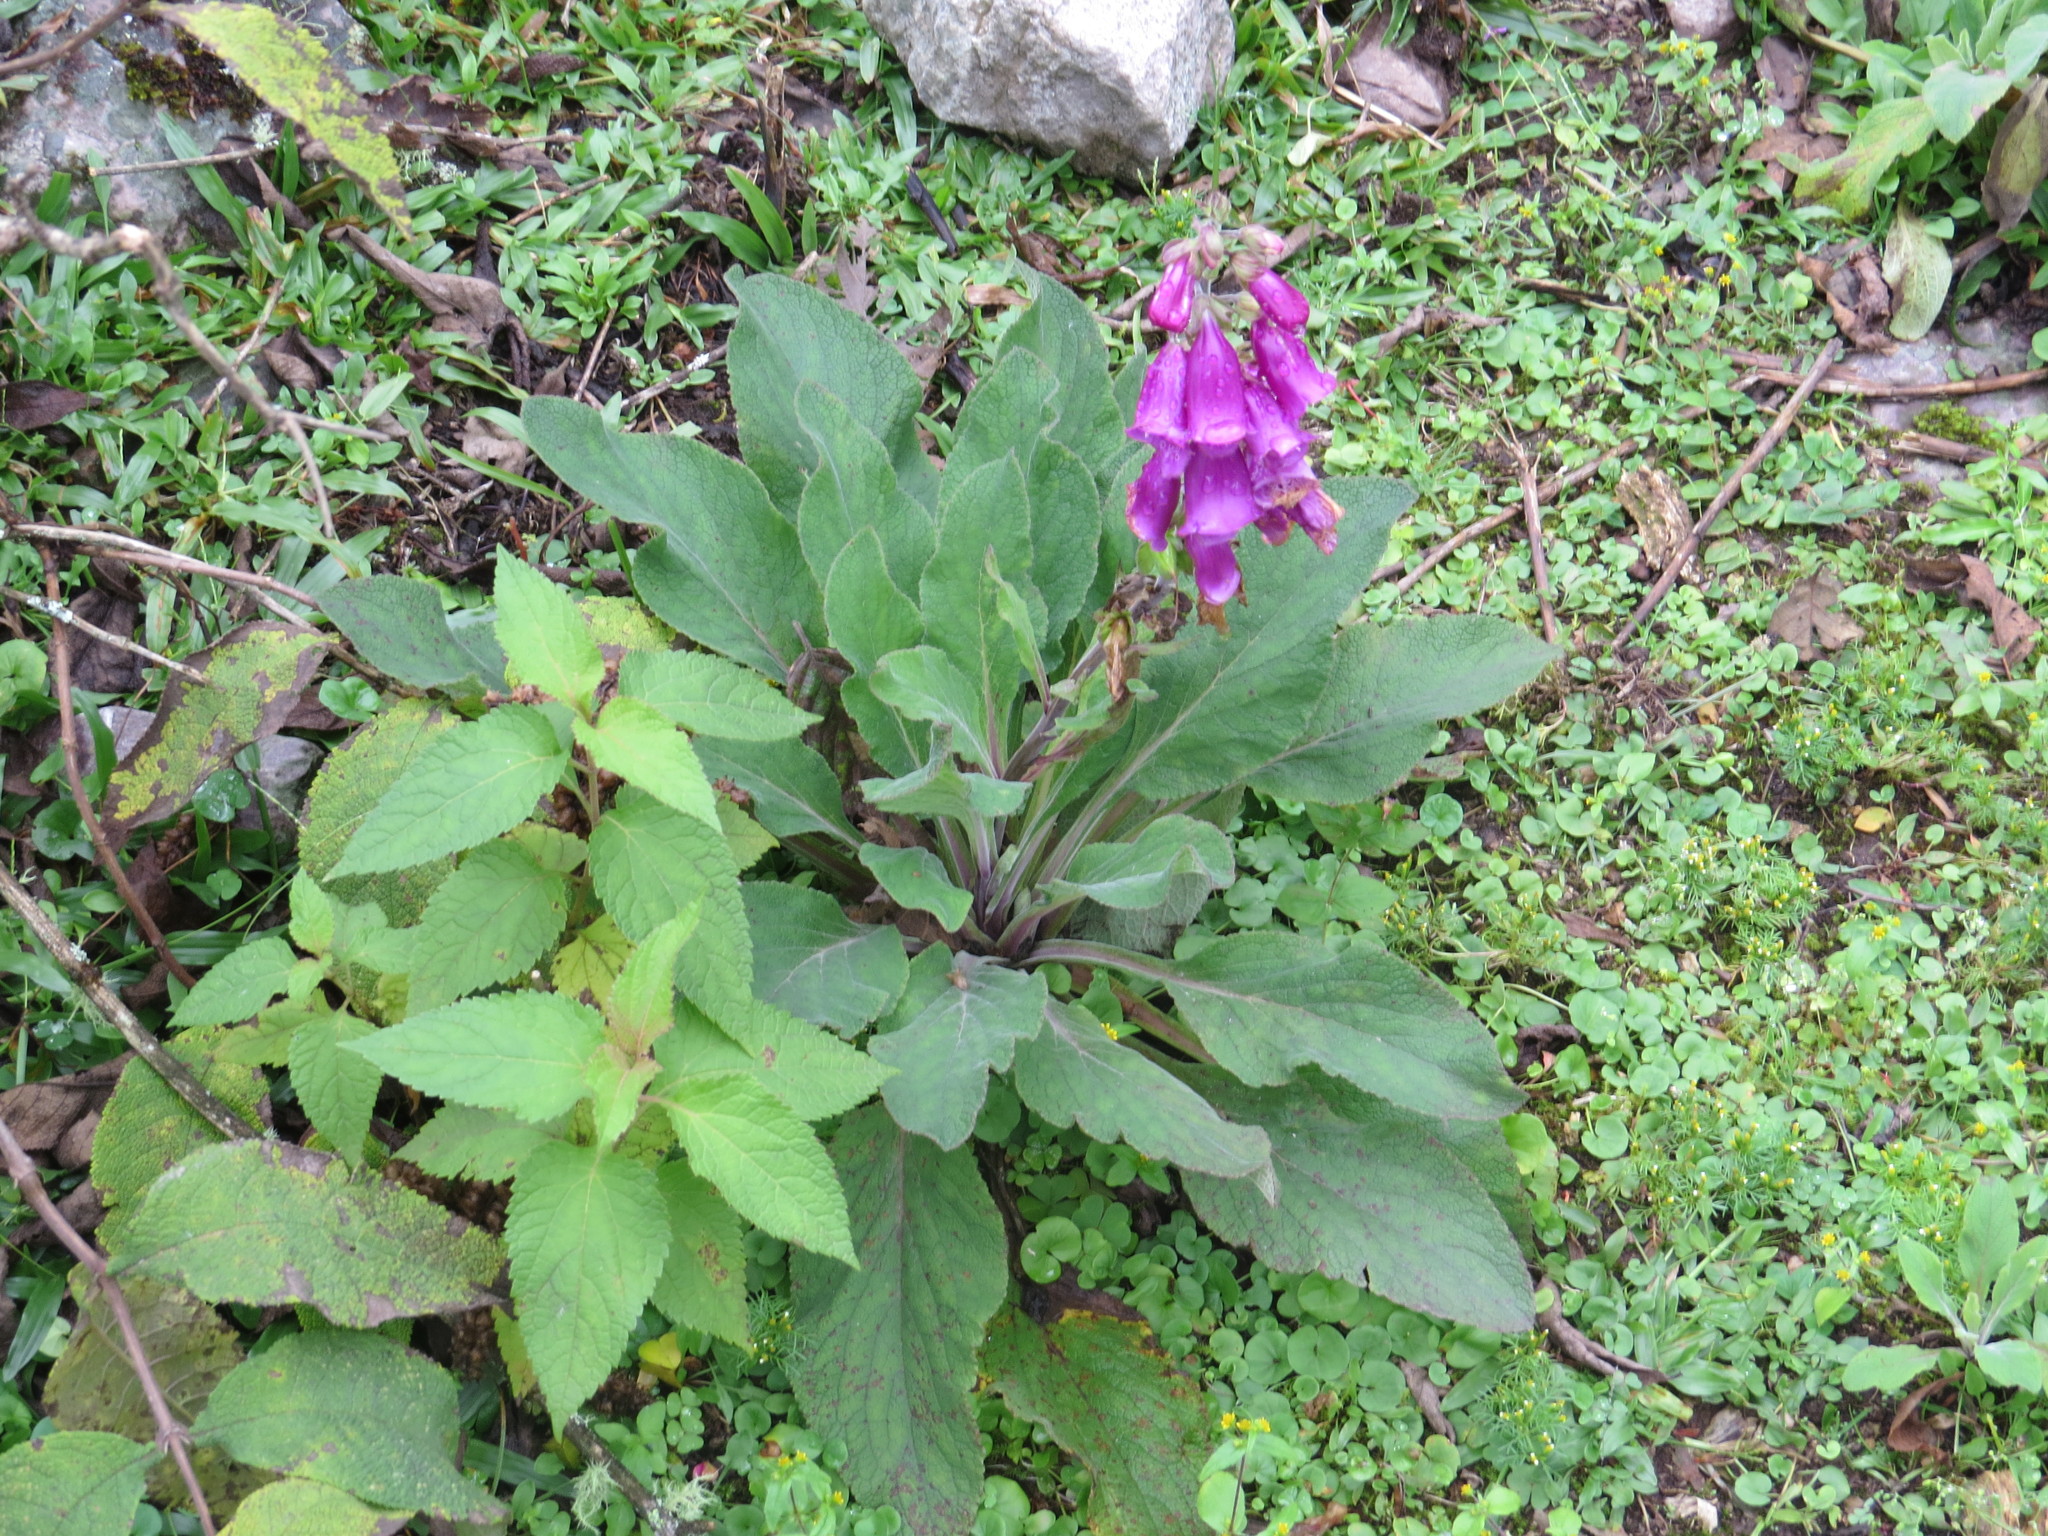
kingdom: Plantae
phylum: Tracheophyta
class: Magnoliopsida
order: Lamiales
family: Plantaginaceae
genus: Digitalis
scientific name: Digitalis purpurea
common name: Foxglove
